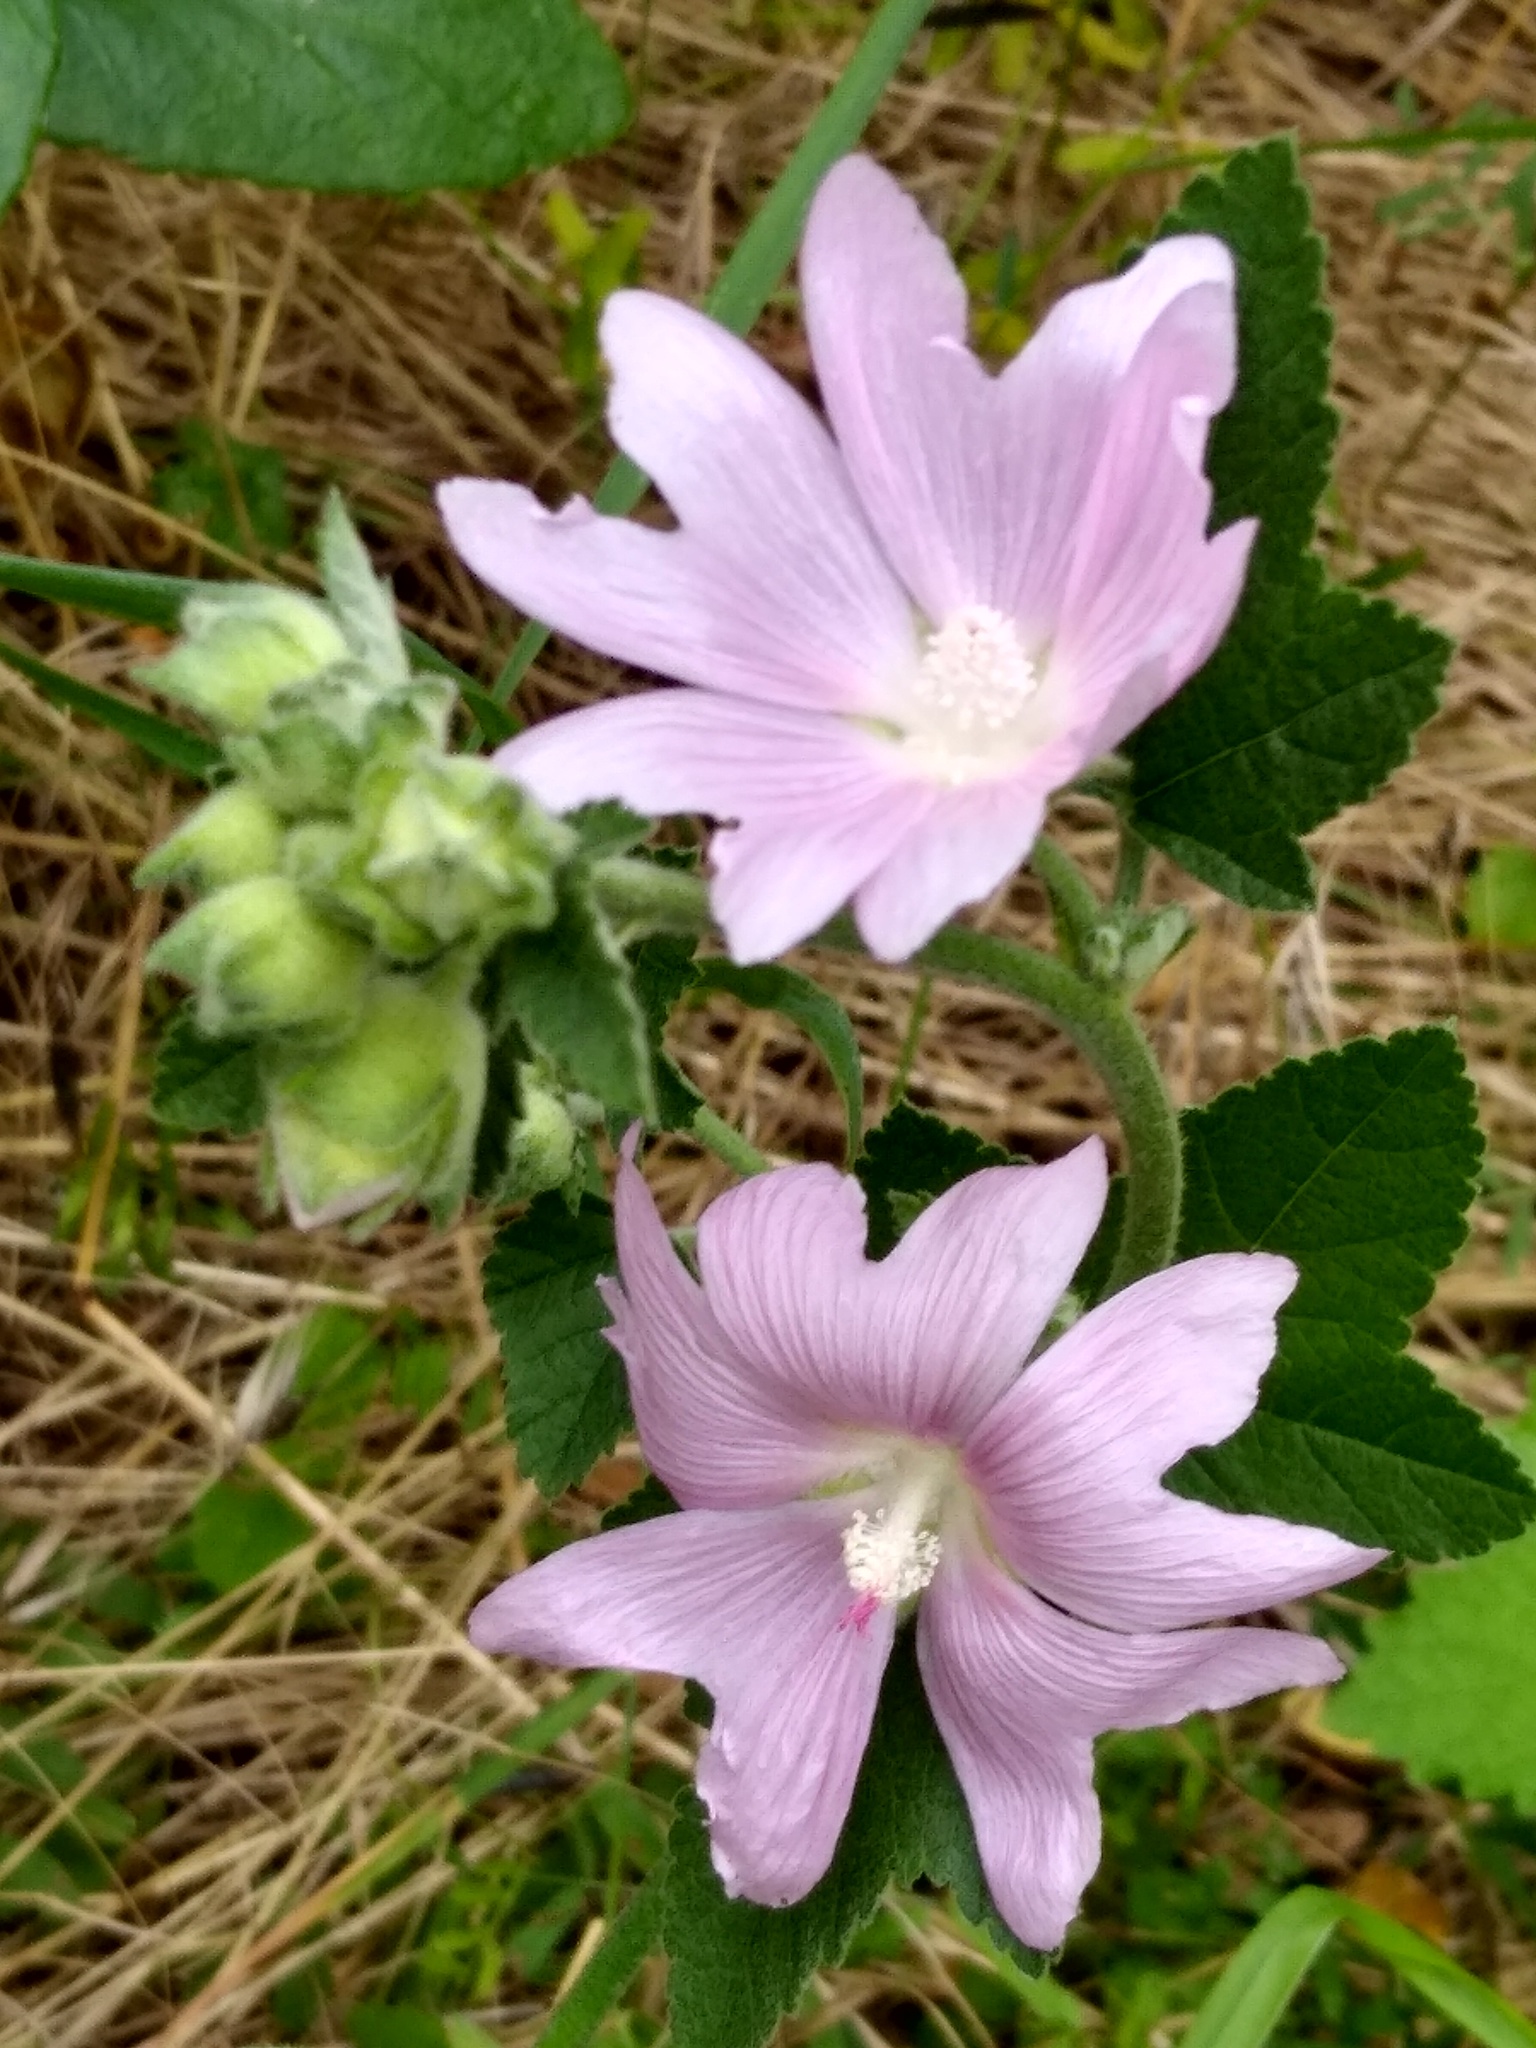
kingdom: Plantae
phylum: Tracheophyta
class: Magnoliopsida
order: Malvales
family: Malvaceae
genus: Malva
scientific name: Malva thuringiaca
